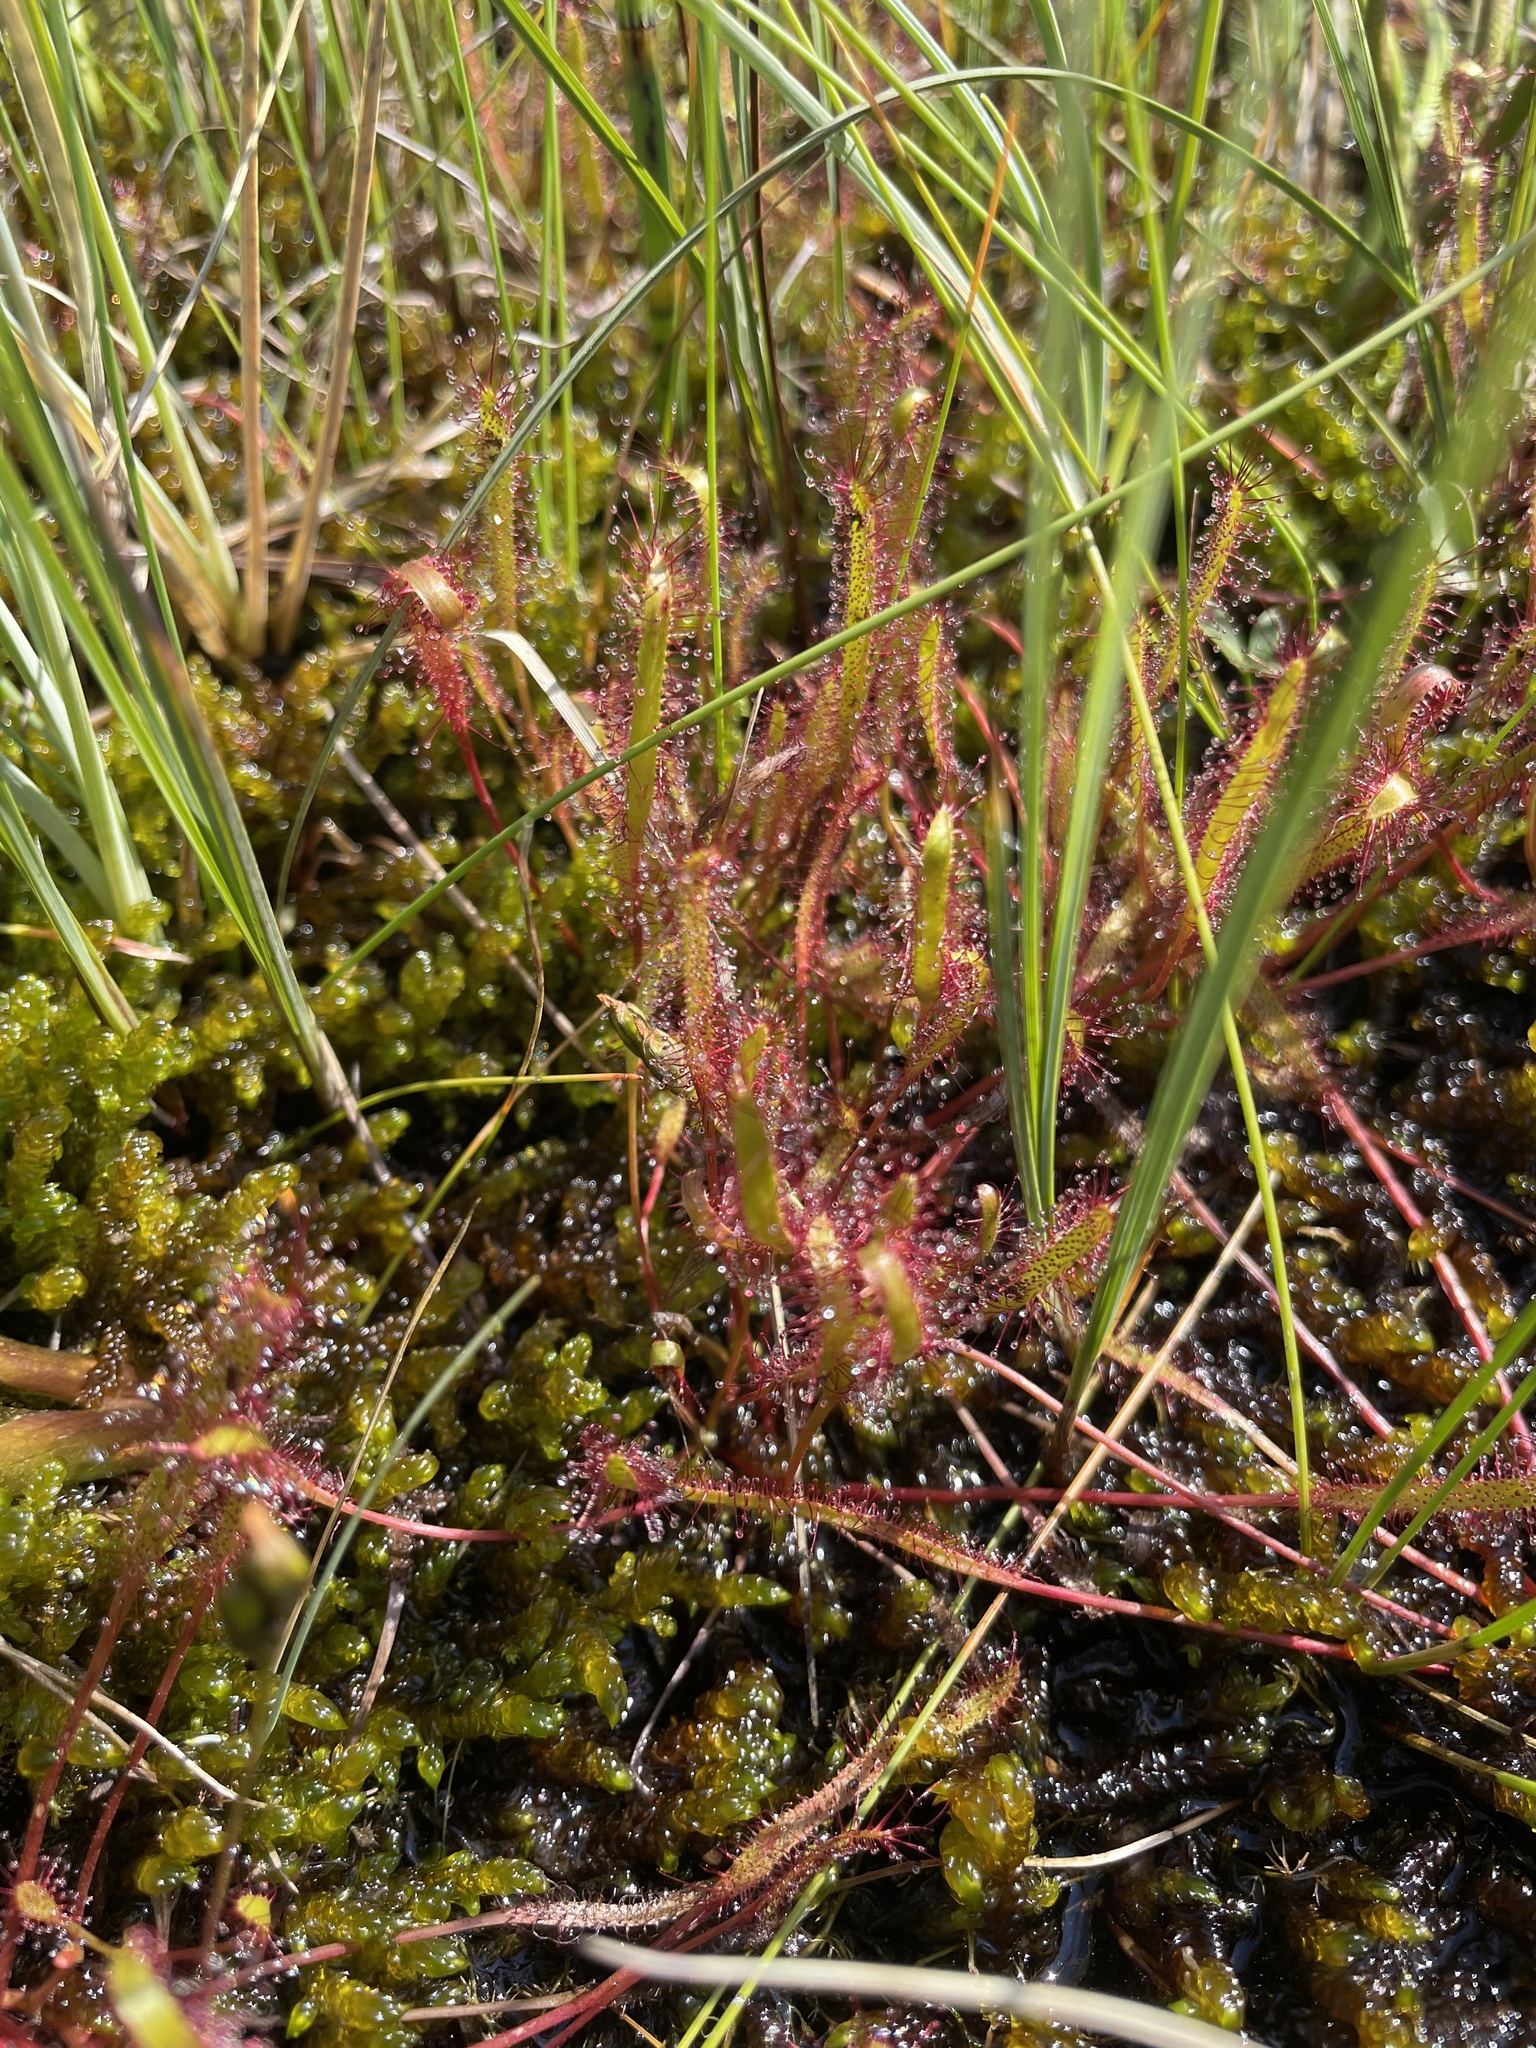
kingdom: Plantae
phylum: Tracheophyta
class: Magnoliopsida
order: Caryophyllales
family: Droseraceae
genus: Drosera
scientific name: Drosera linearis
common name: Linear-leaved sundew
